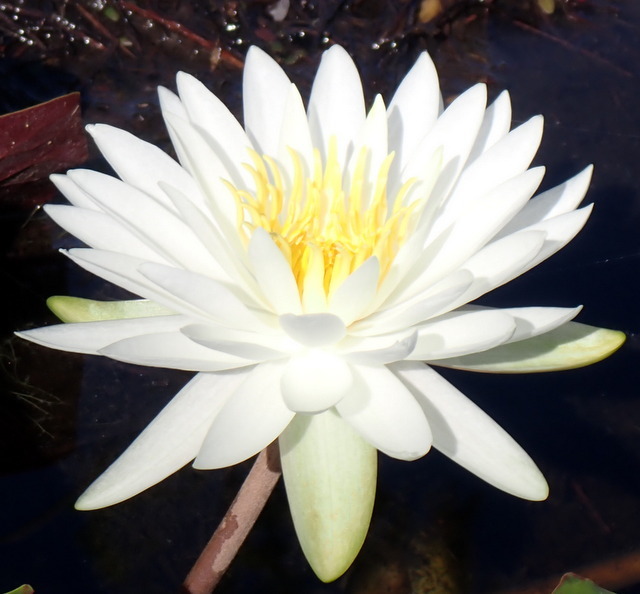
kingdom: Plantae
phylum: Tracheophyta
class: Magnoliopsida
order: Nymphaeales
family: Nymphaeaceae
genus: Nymphaea
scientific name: Nymphaea odorata
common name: Fragrant water-lily
